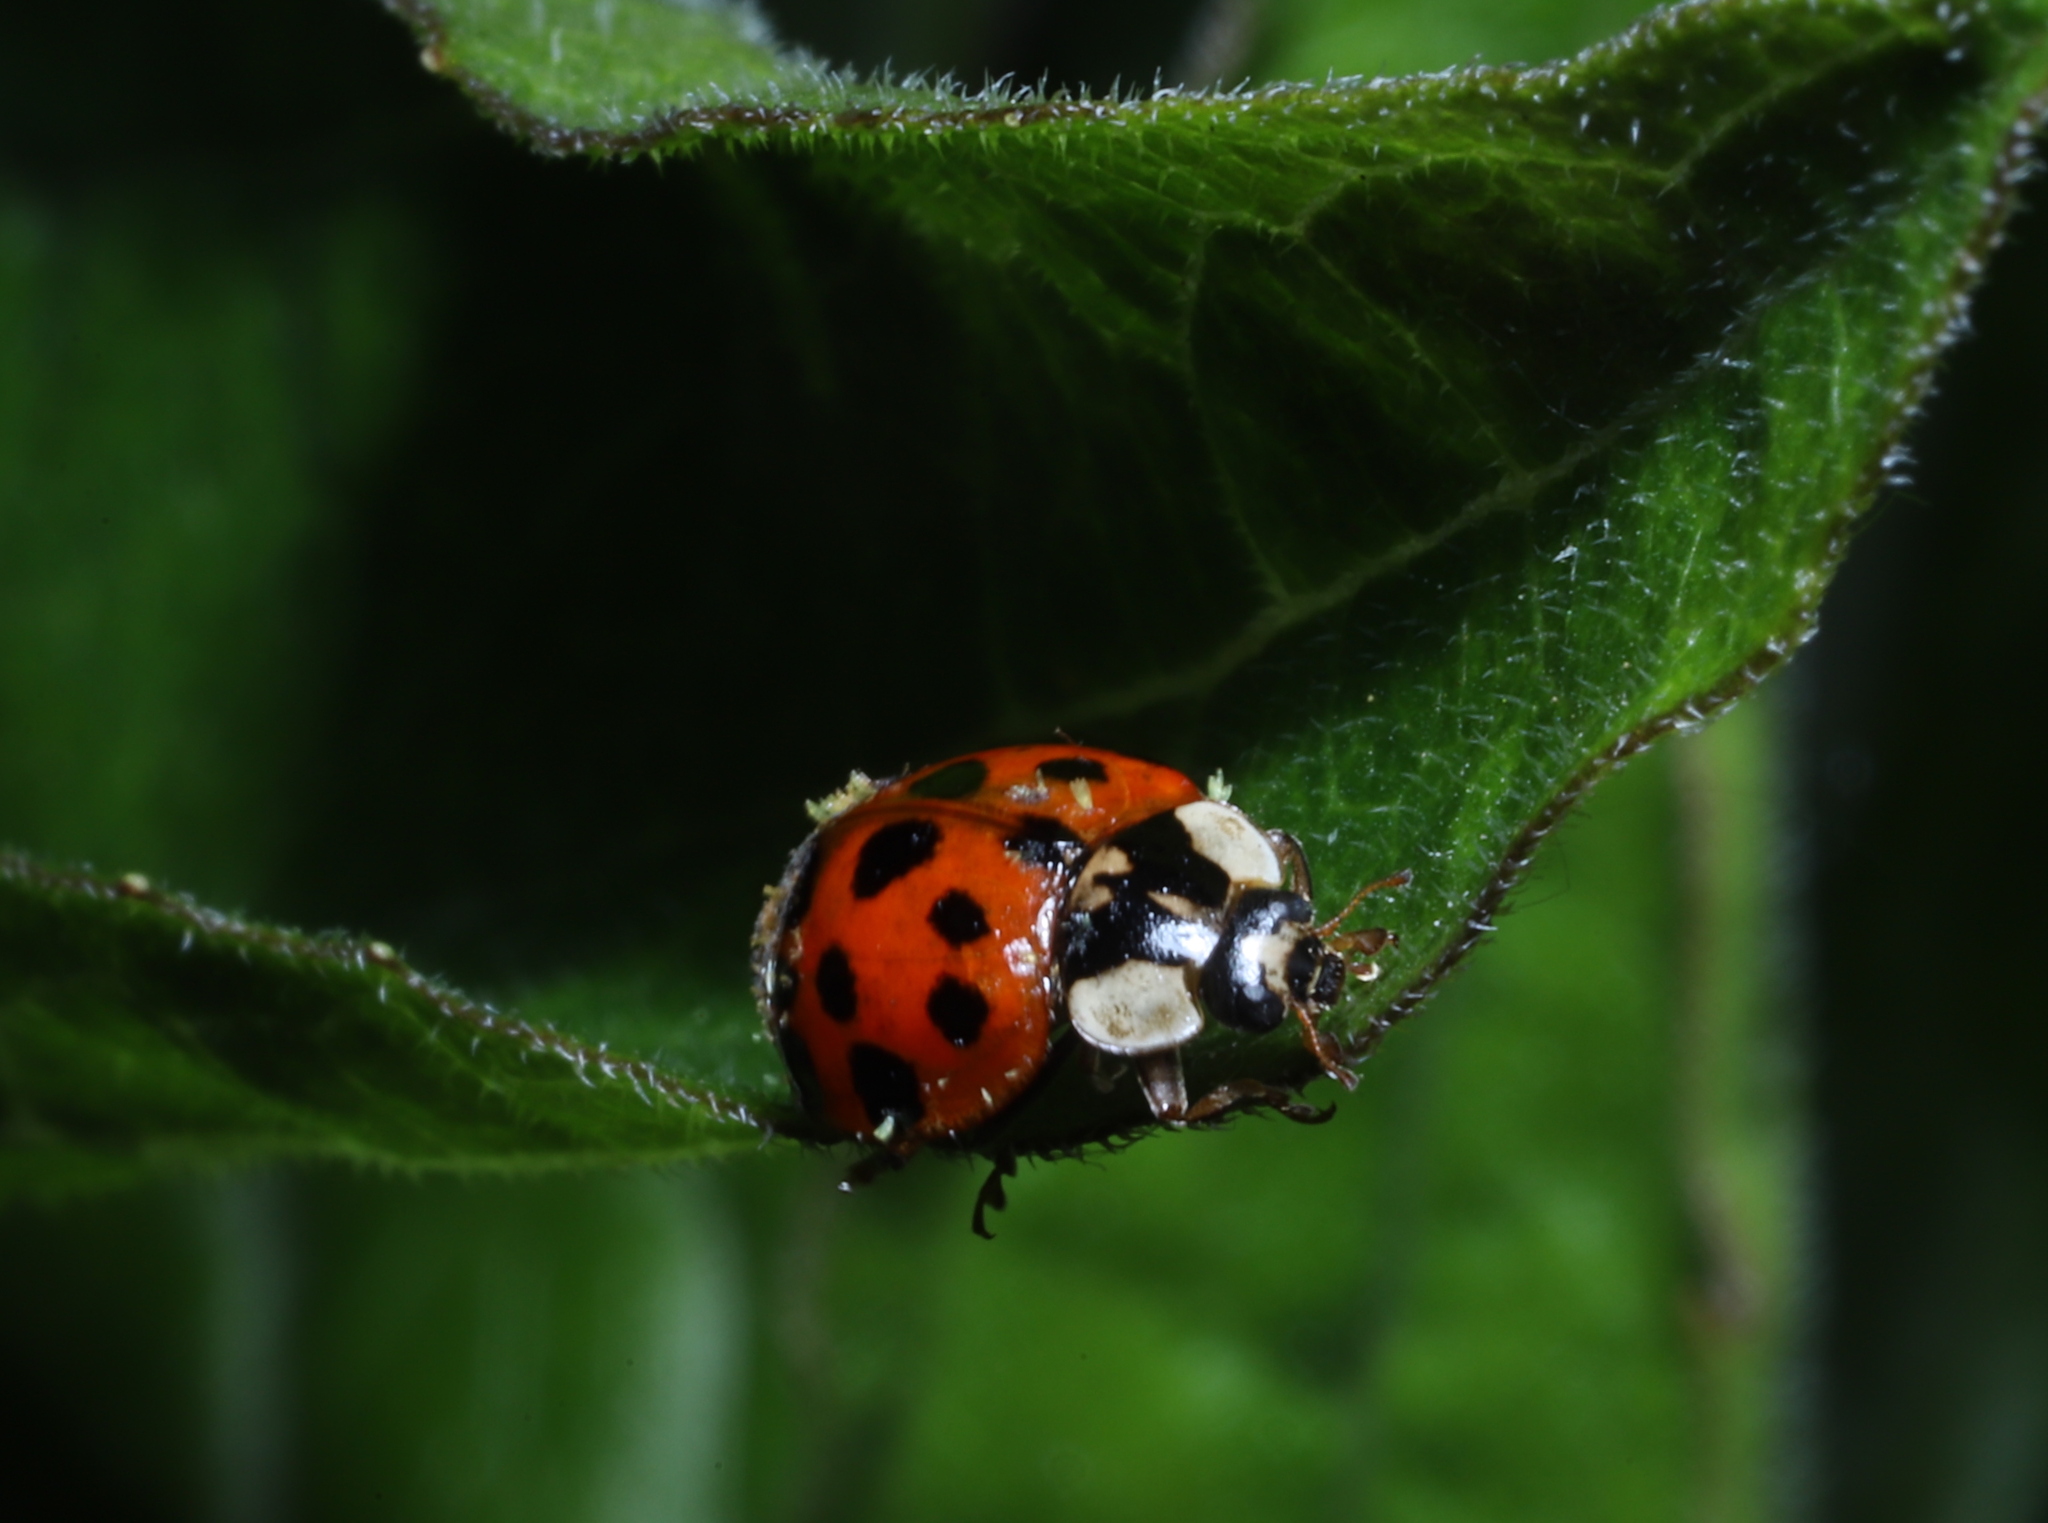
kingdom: Animalia
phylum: Arthropoda
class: Insecta
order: Coleoptera
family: Coccinellidae
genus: Harmonia
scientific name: Harmonia axyridis
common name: Harlequin ladybird
